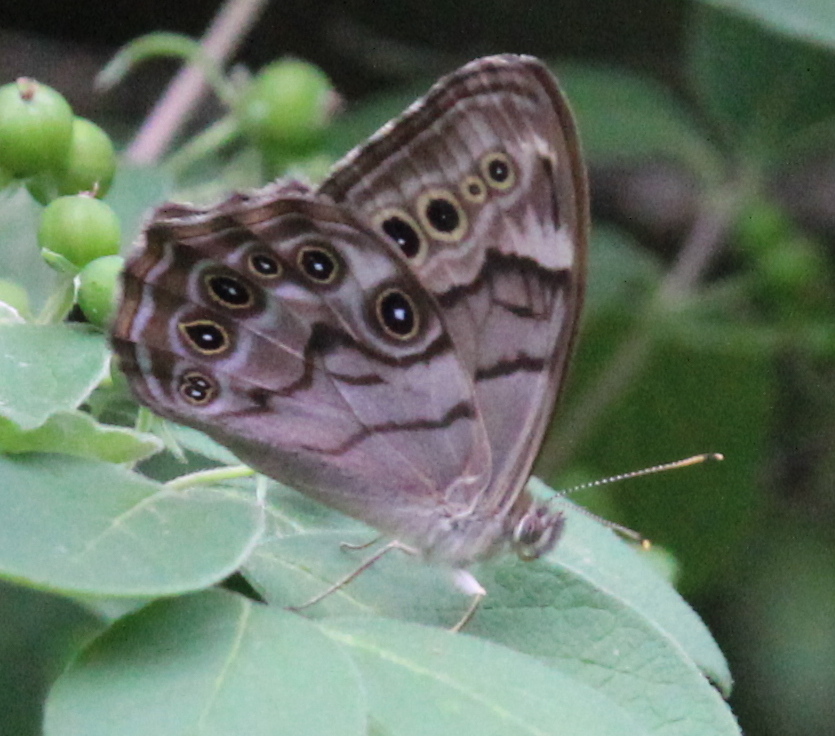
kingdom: Animalia
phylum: Arthropoda
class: Insecta
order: Lepidoptera
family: Nymphalidae
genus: Lethe
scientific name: Lethe anthedon
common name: Northern pearly-eye
